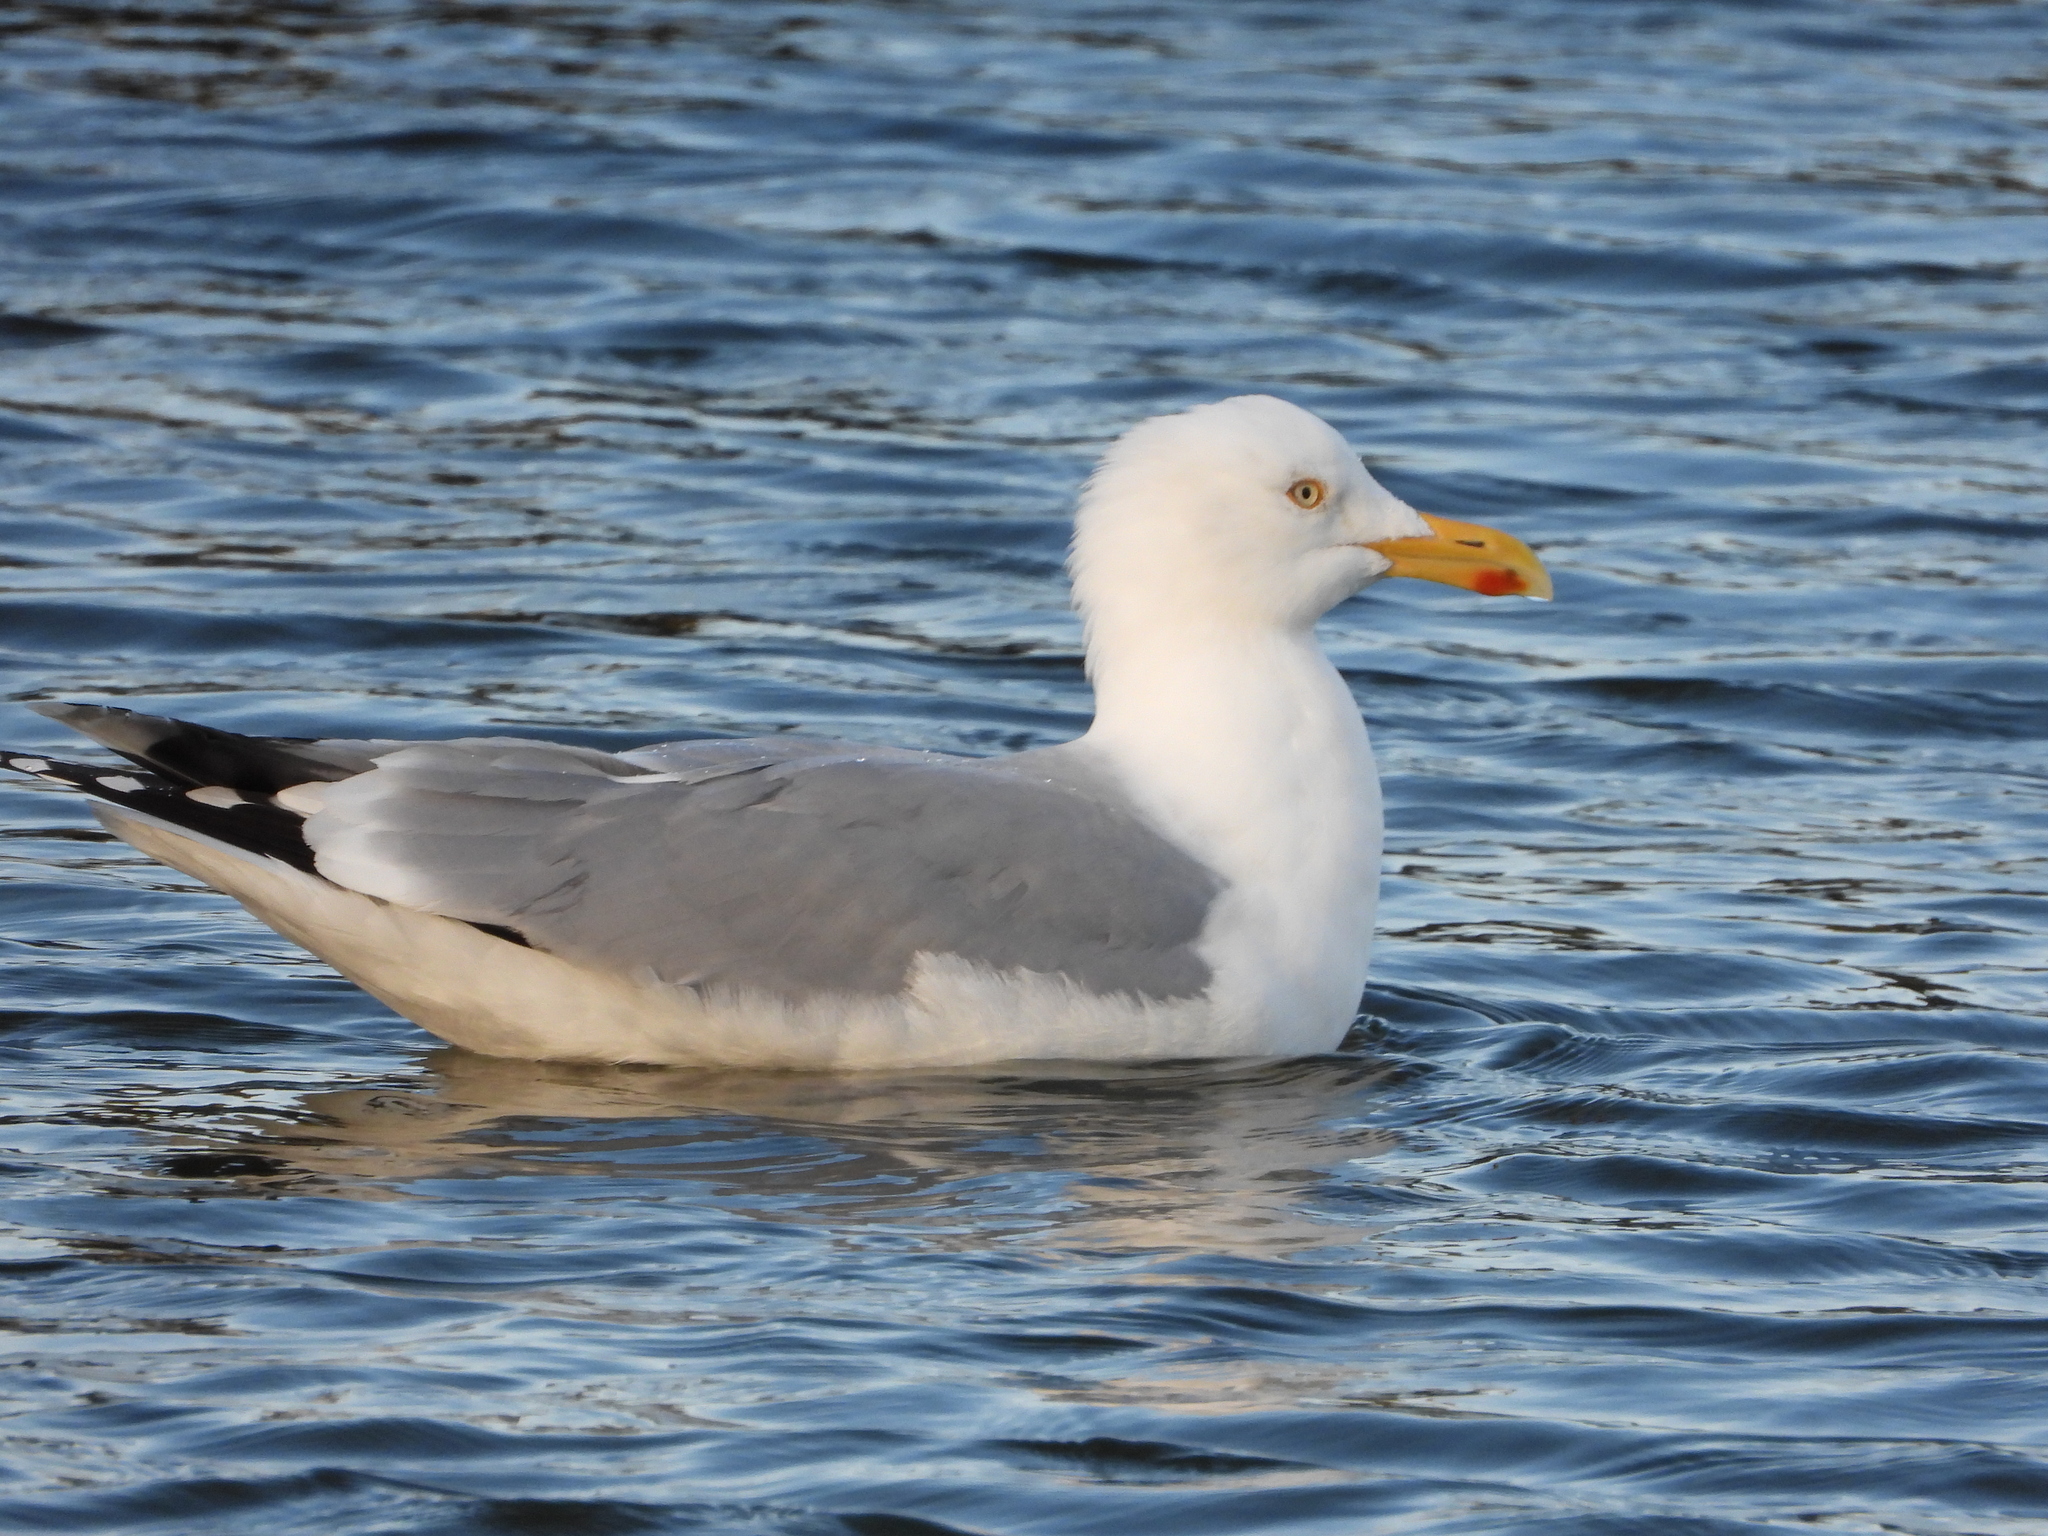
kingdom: Animalia
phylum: Chordata
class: Aves
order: Charadriiformes
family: Laridae
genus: Larus
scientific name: Larus argentatus
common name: Herring gull
